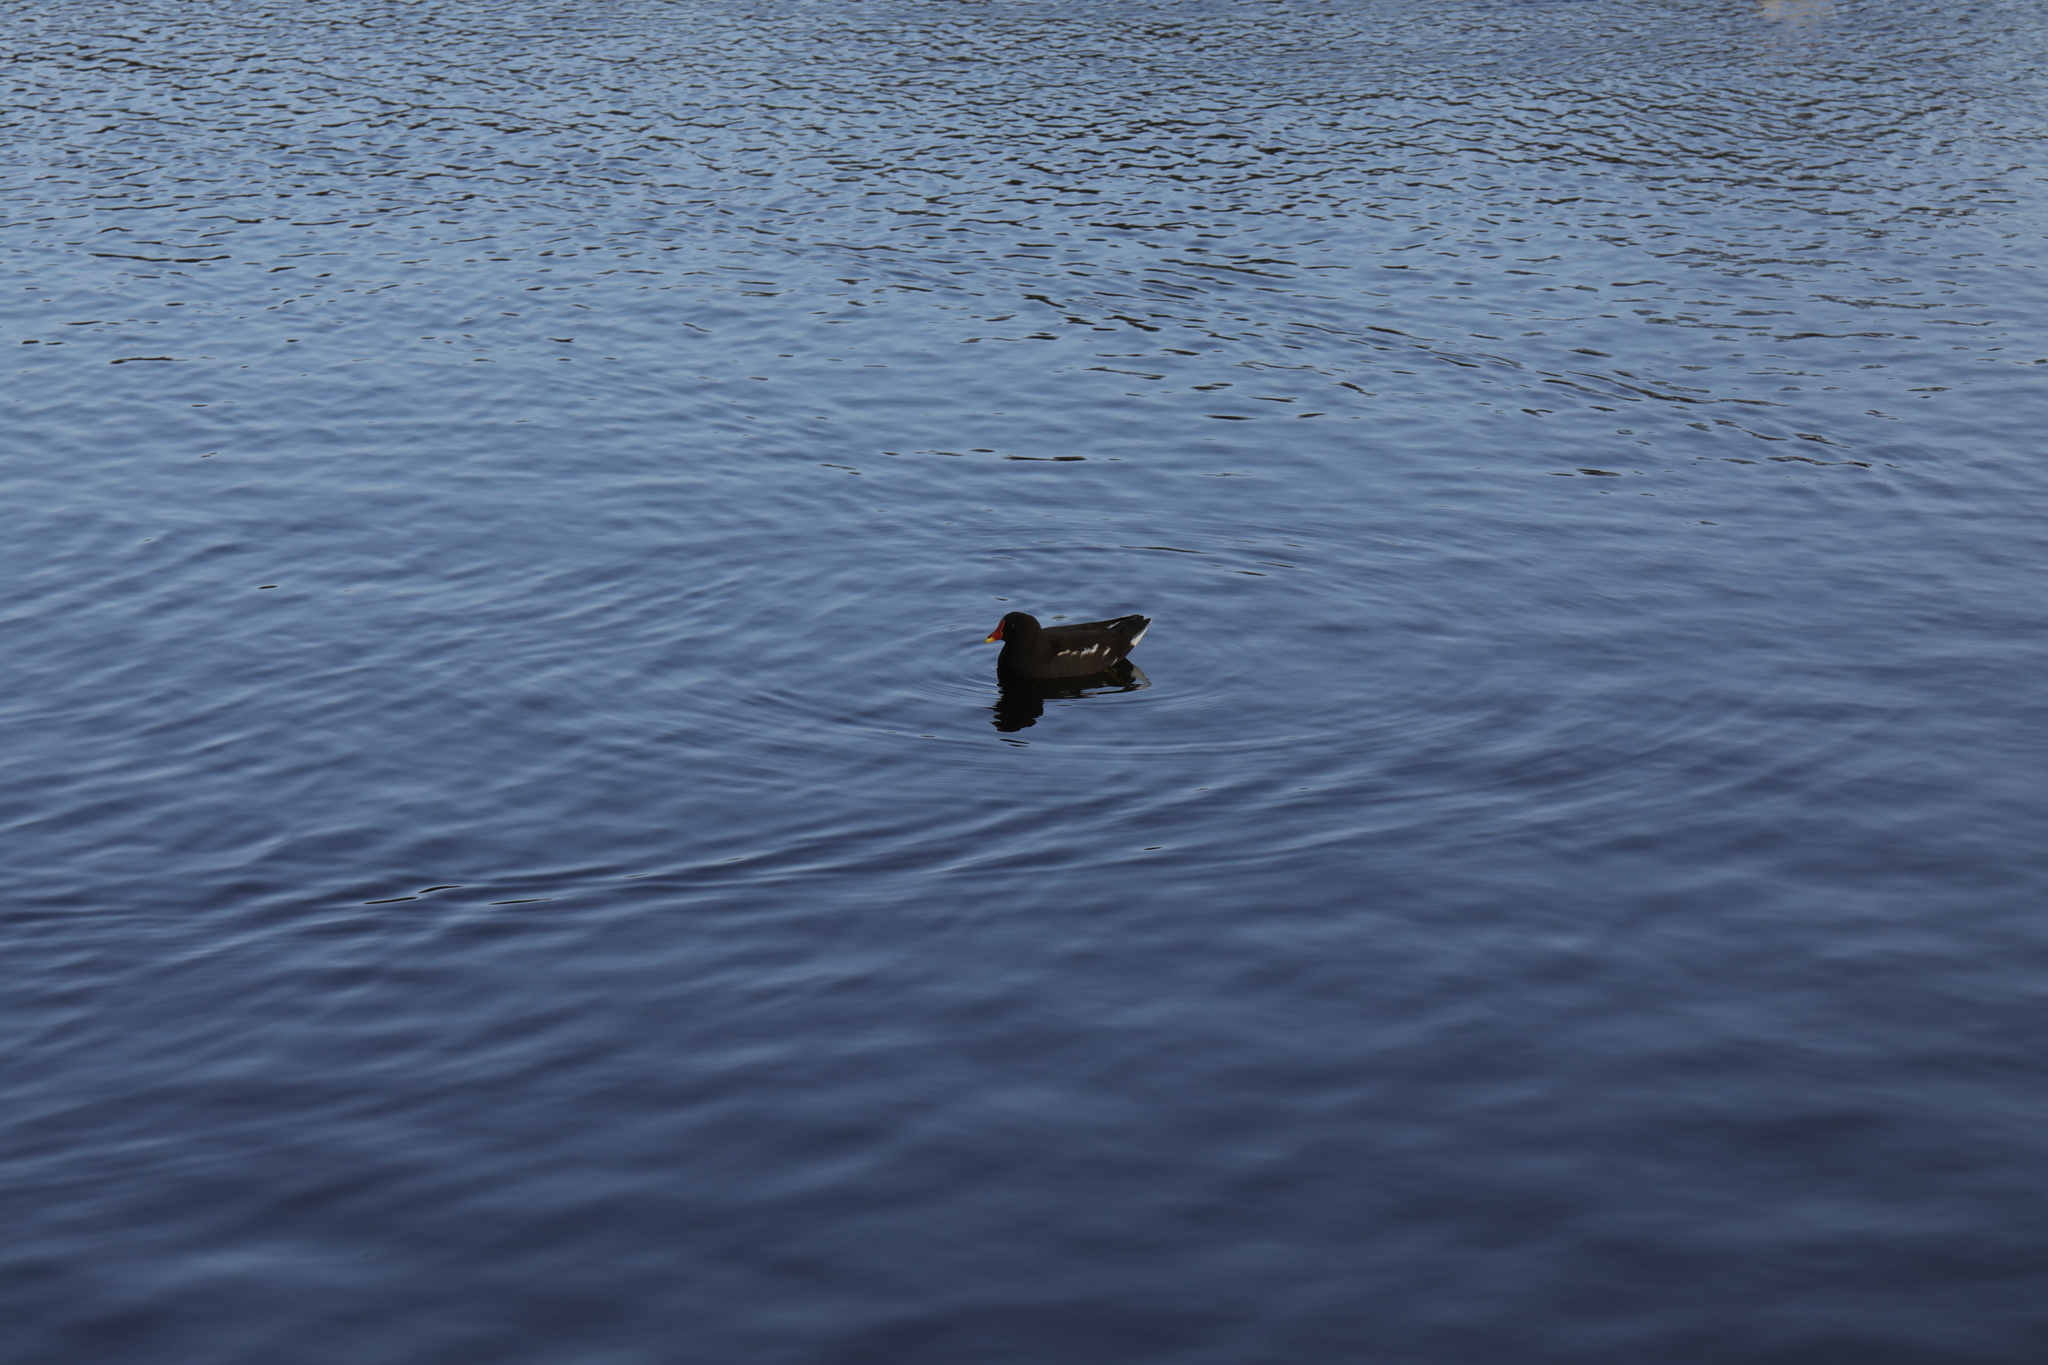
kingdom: Animalia
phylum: Chordata
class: Aves
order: Gruiformes
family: Rallidae
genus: Gallinula
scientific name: Gallinula chloropus
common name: Common moorhen
